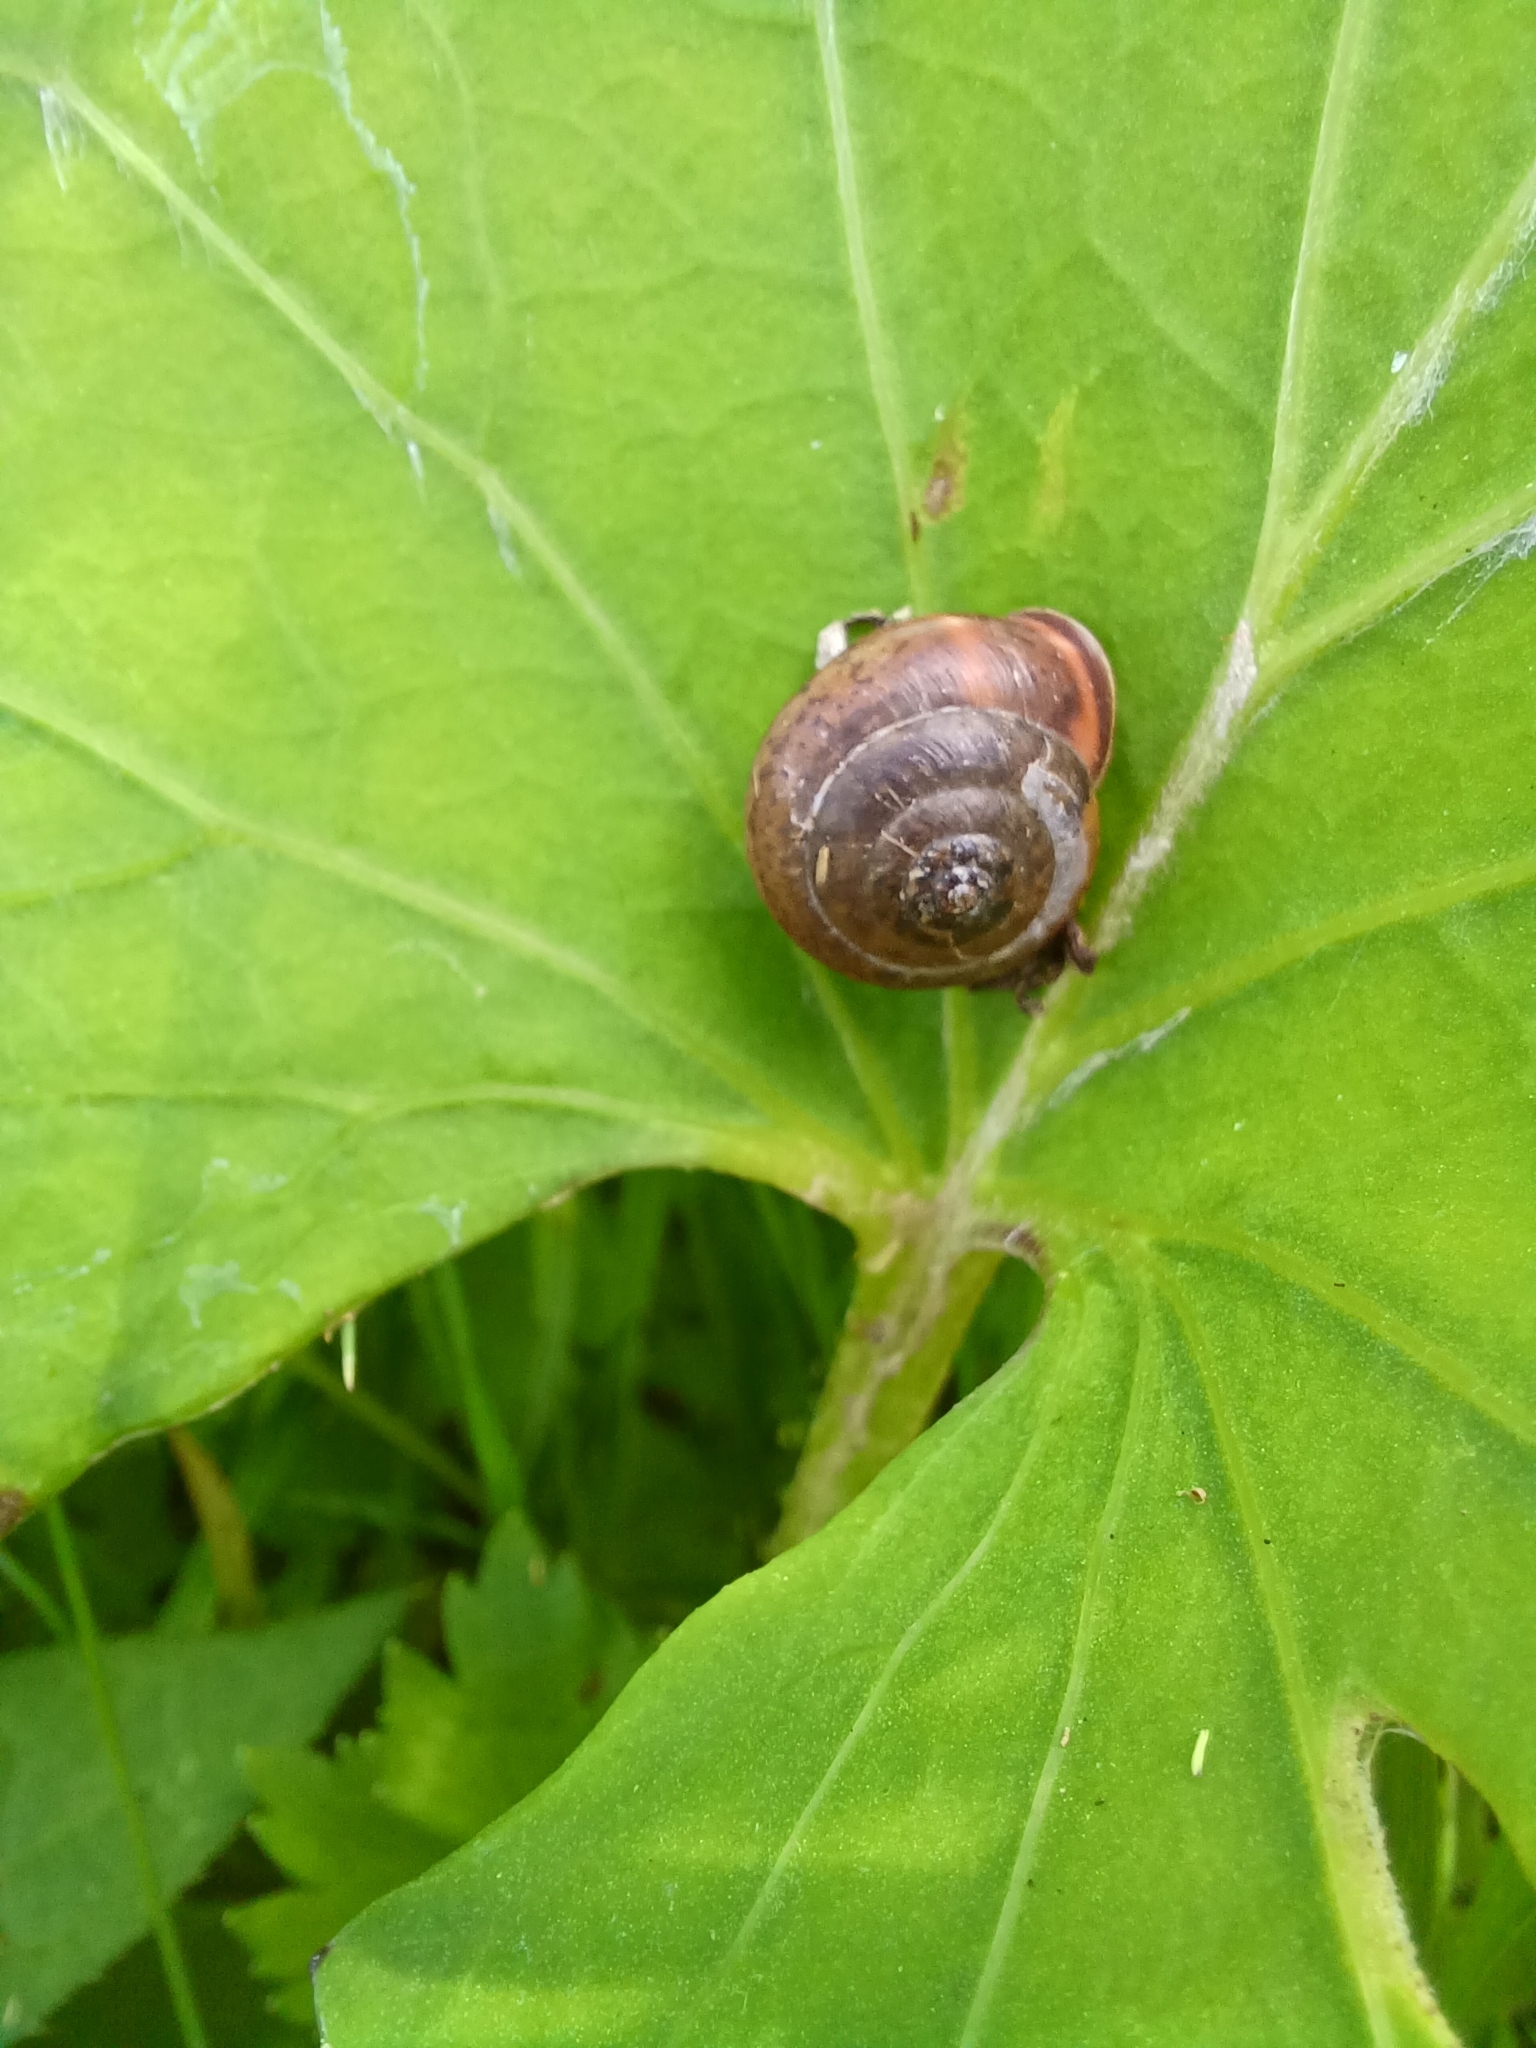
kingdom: Animalia
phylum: Mollusca
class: Gastropoda
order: Stylommatophora
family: Hygromiidae
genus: Monachoides
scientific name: Monachoides incarnatus
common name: Incarnate snail
